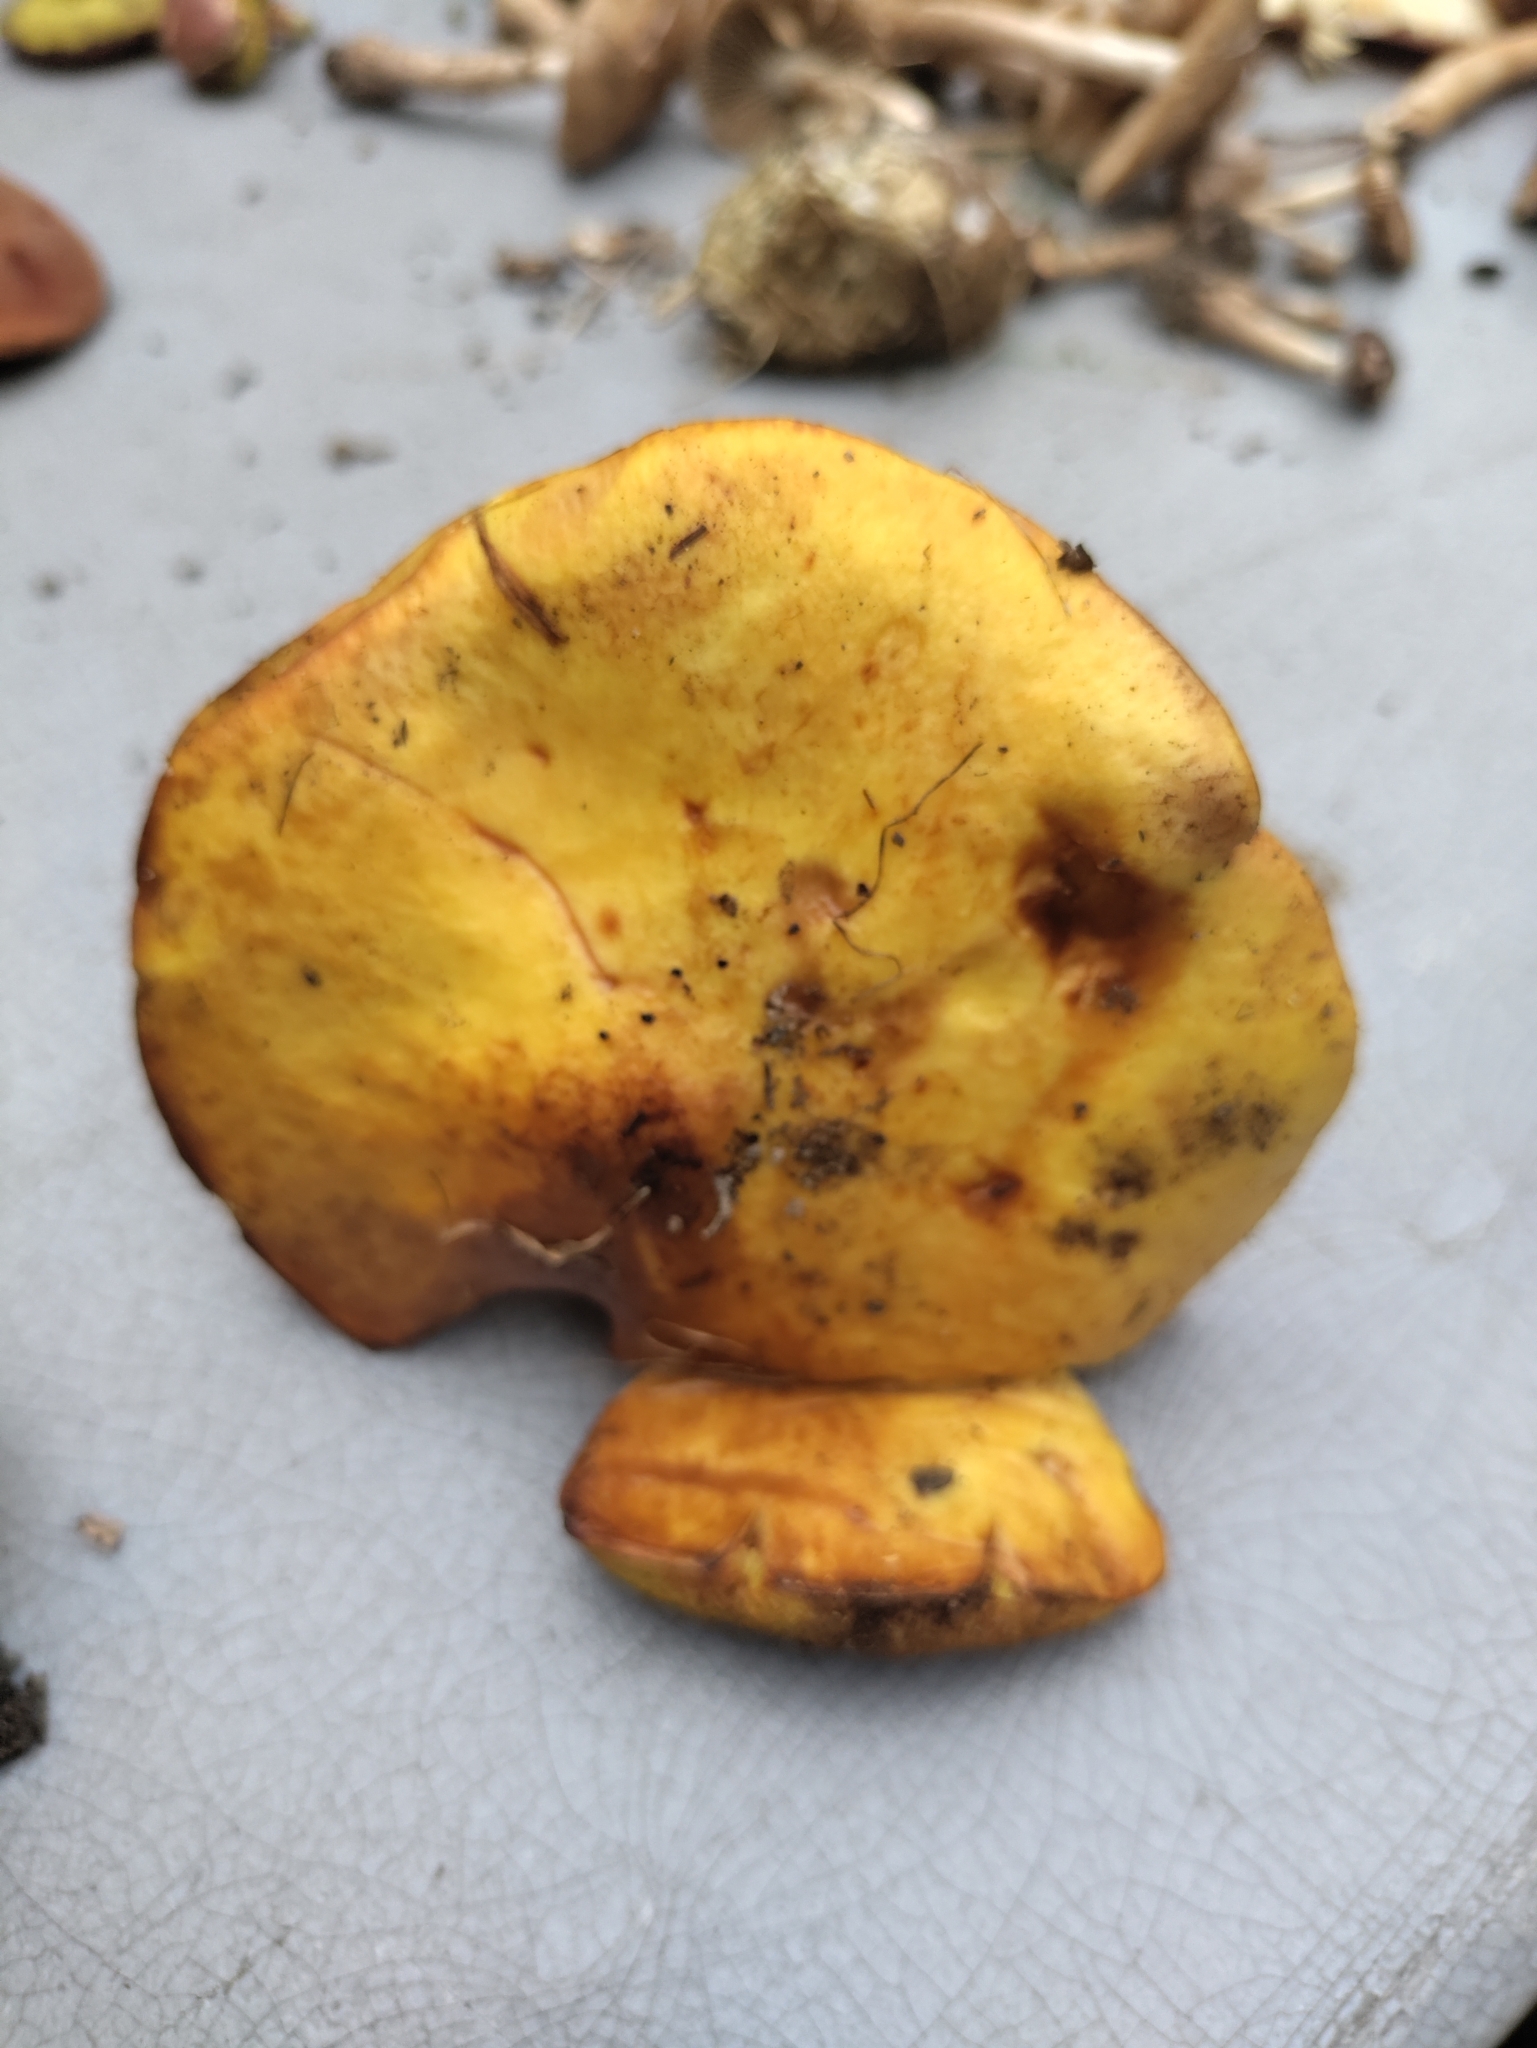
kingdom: Fungi
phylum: Basidiomycota
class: Agaricomycetes
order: Boletales
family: Suillaceae
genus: Suillus
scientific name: Suillus americanus
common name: Chicken fat mushroom
